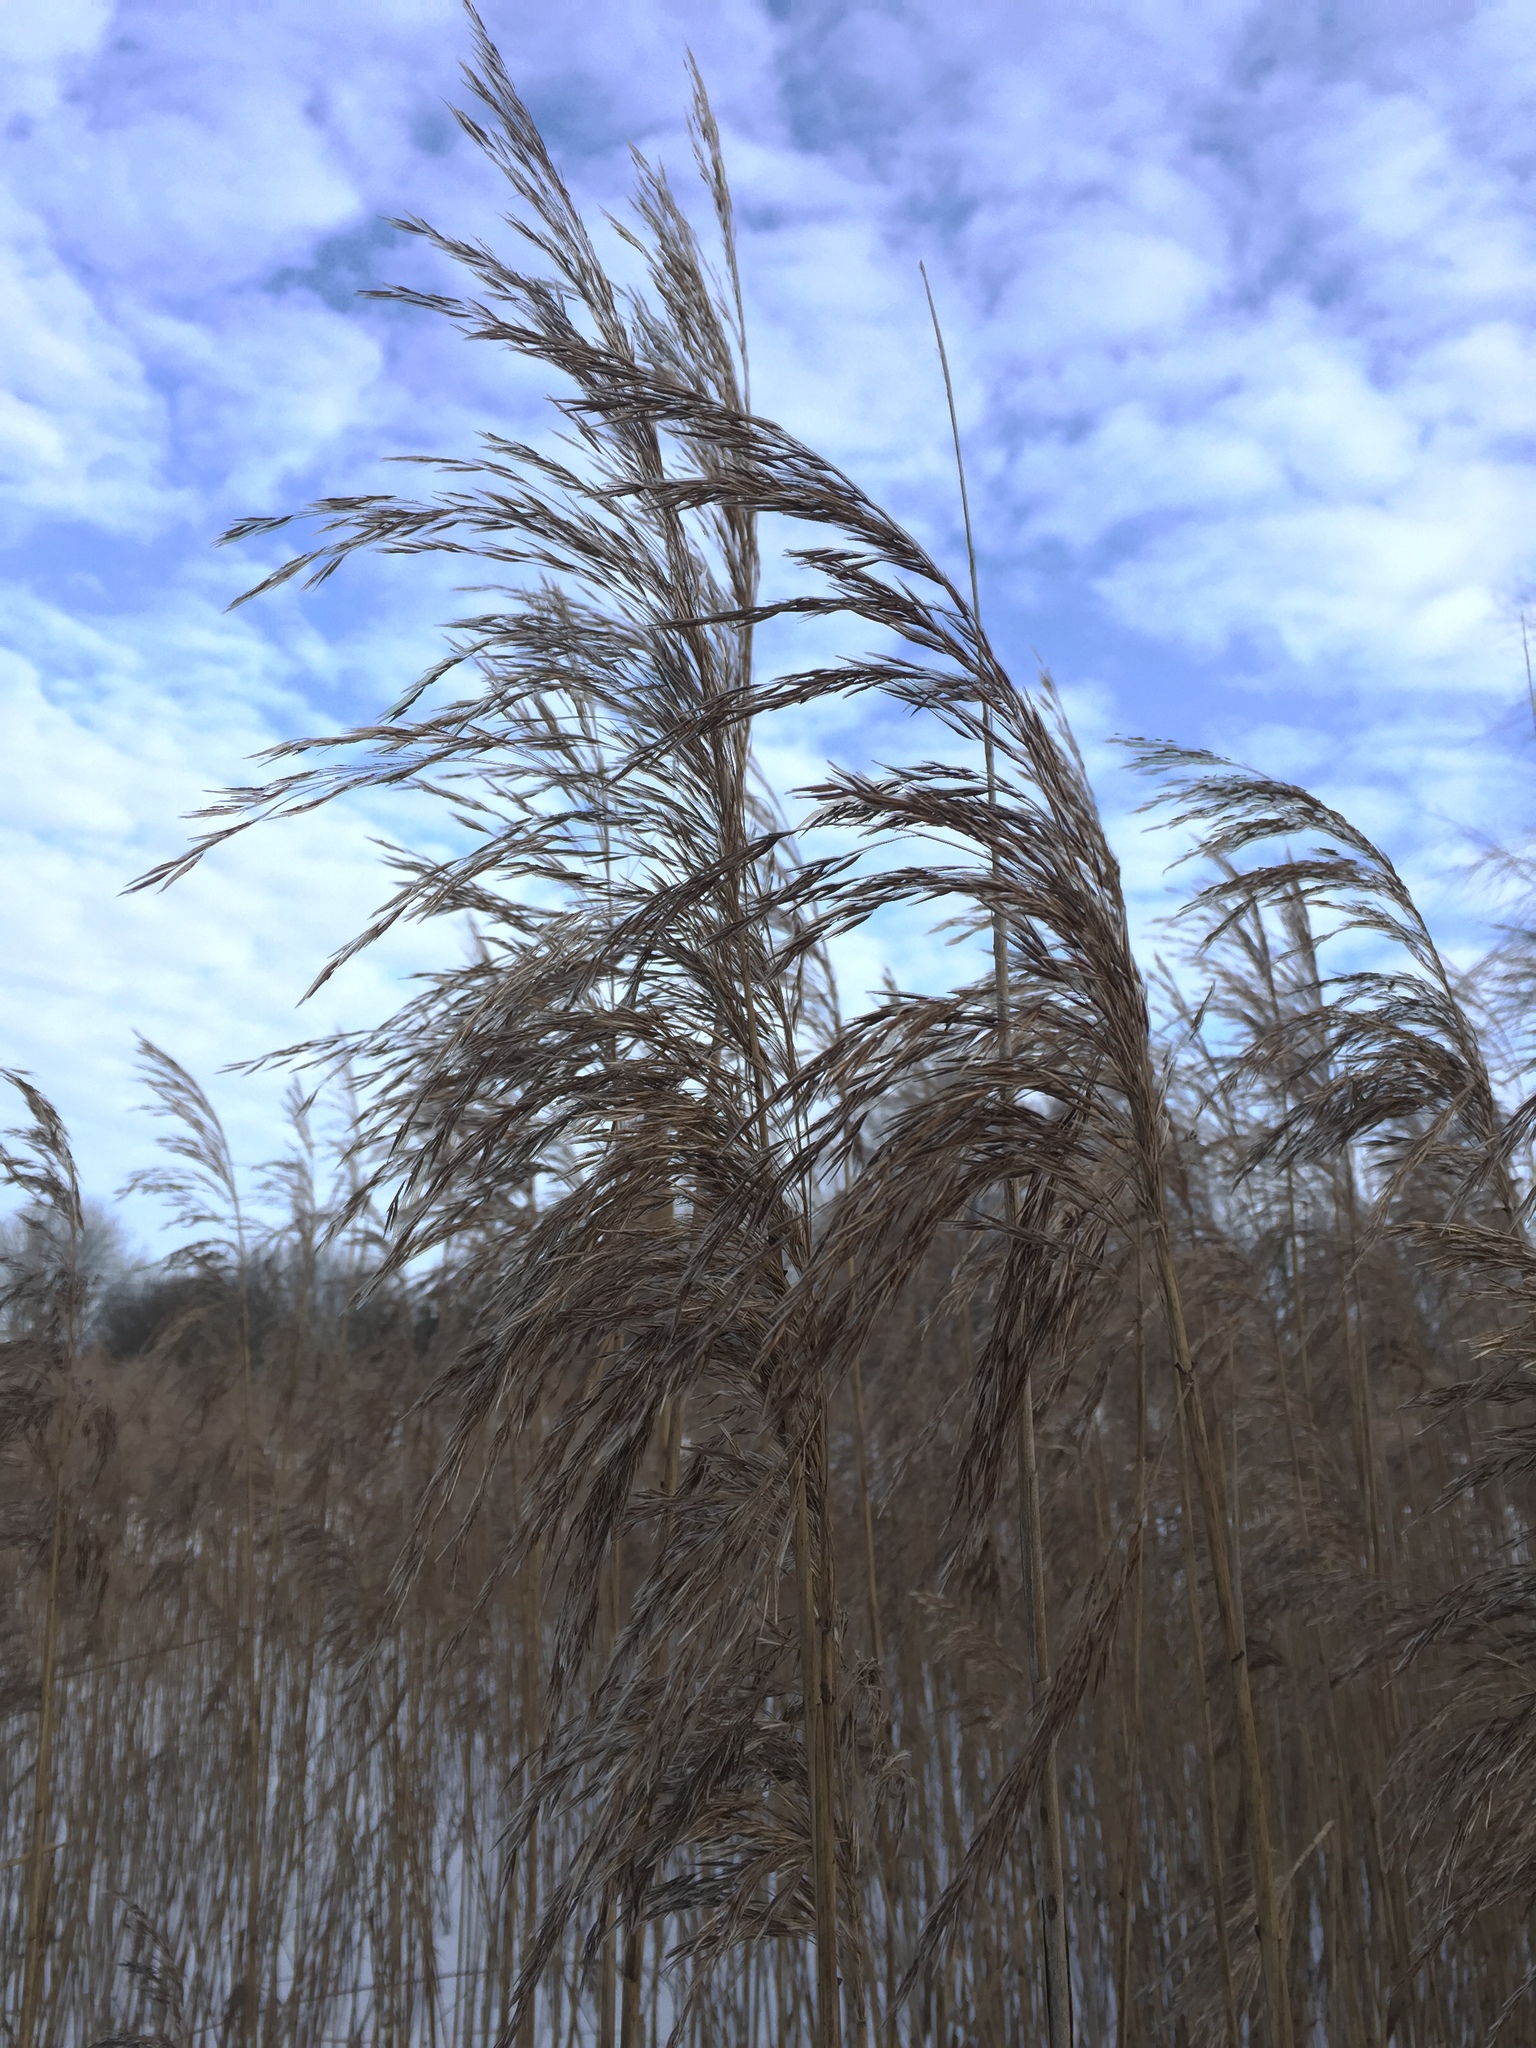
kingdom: Plantae
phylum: Tracheophyta
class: Liliopsida
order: Poales
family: Poaceae
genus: Phragmites
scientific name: Phragmites australis
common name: Common reed
